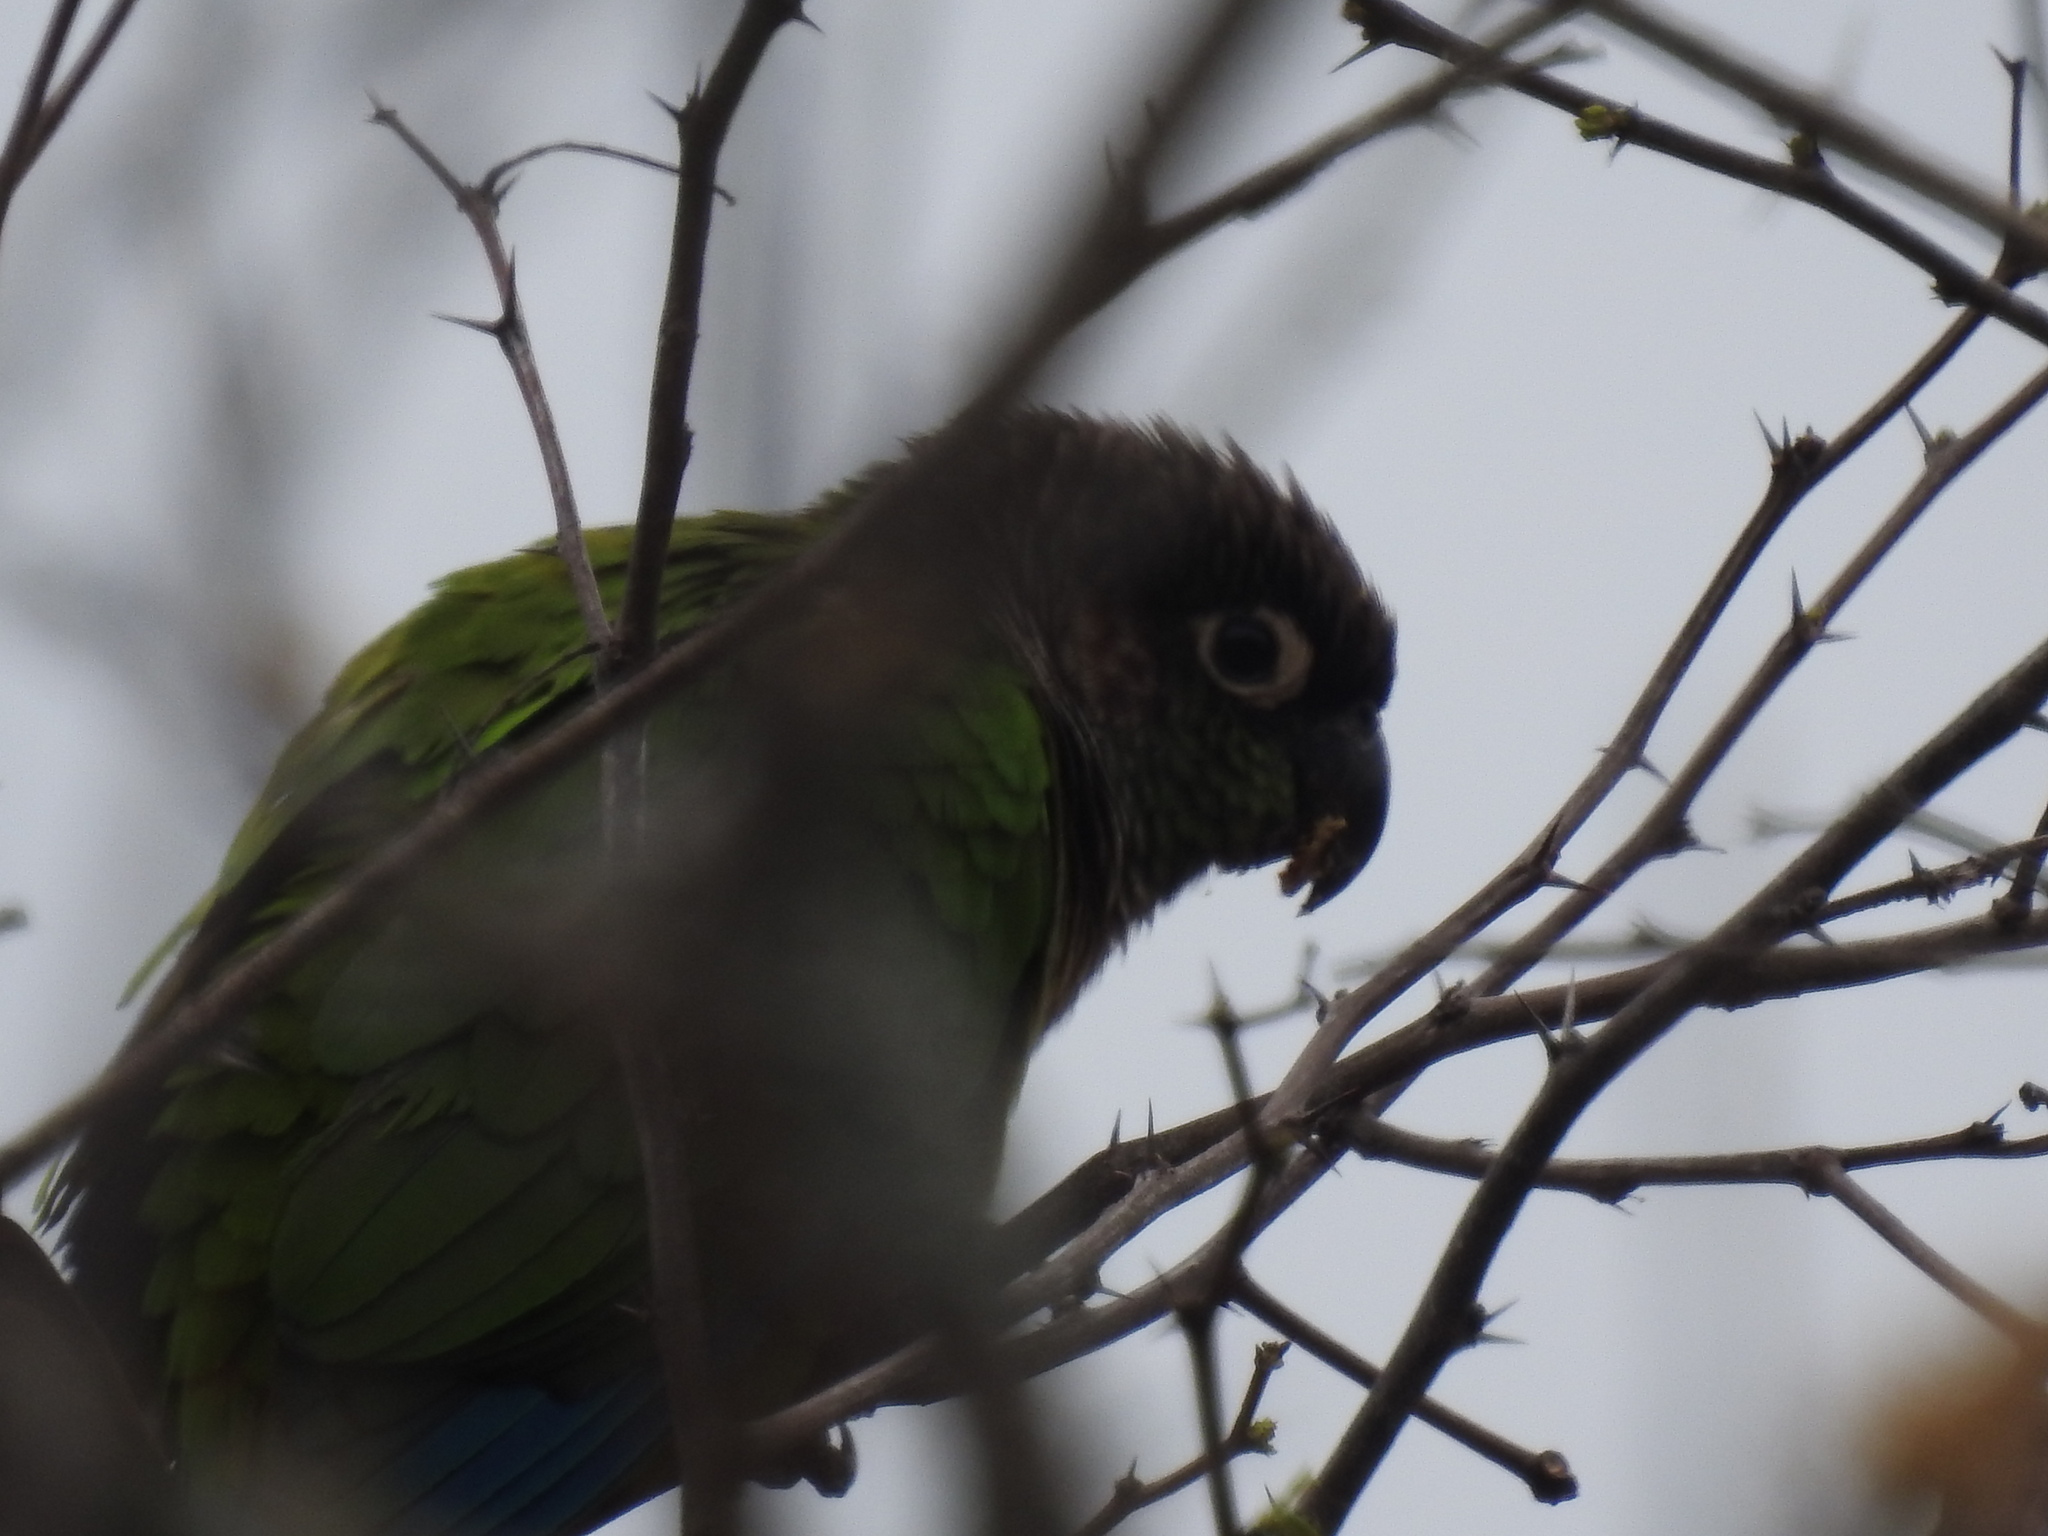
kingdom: Animalia
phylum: Chordata
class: Aves
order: Psittaciformes
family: Psittacidae
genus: Pyrrhura
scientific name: Pyrrhura molinae
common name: Green-cheeked parakeet
